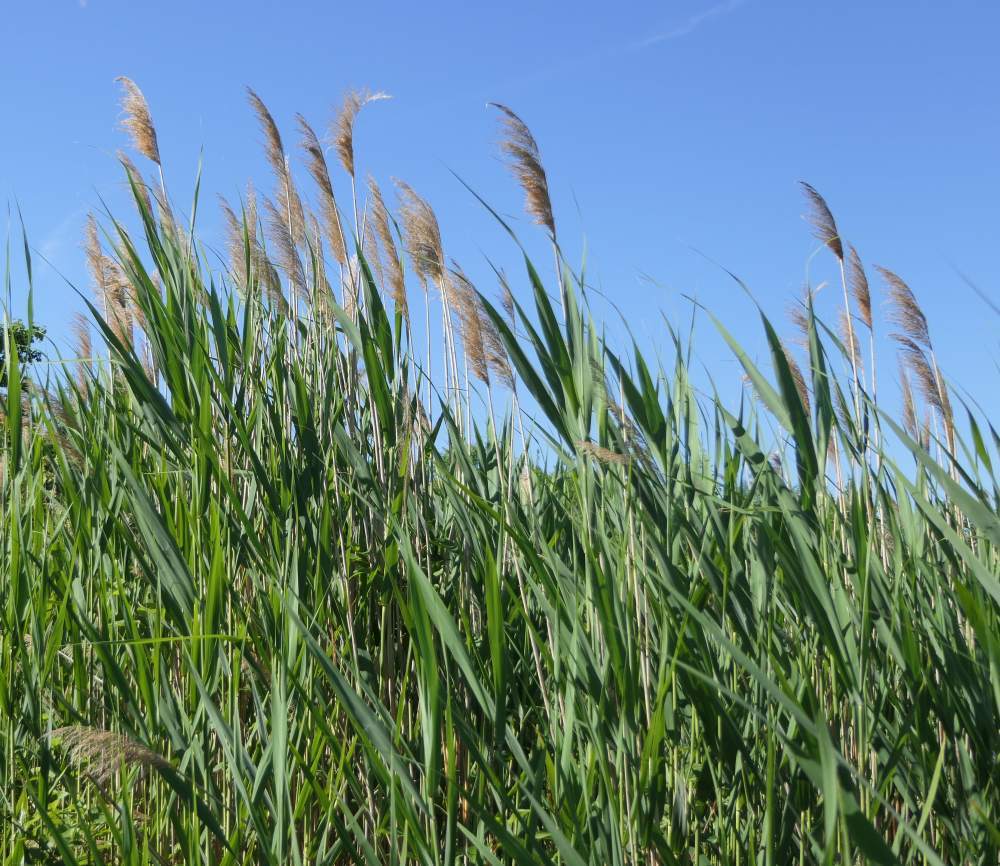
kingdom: Plantae
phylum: Tracheophyta
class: Liliopsida
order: Poales
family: Poaceae
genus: Phragmites
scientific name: Phragmites australis
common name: Common reed
